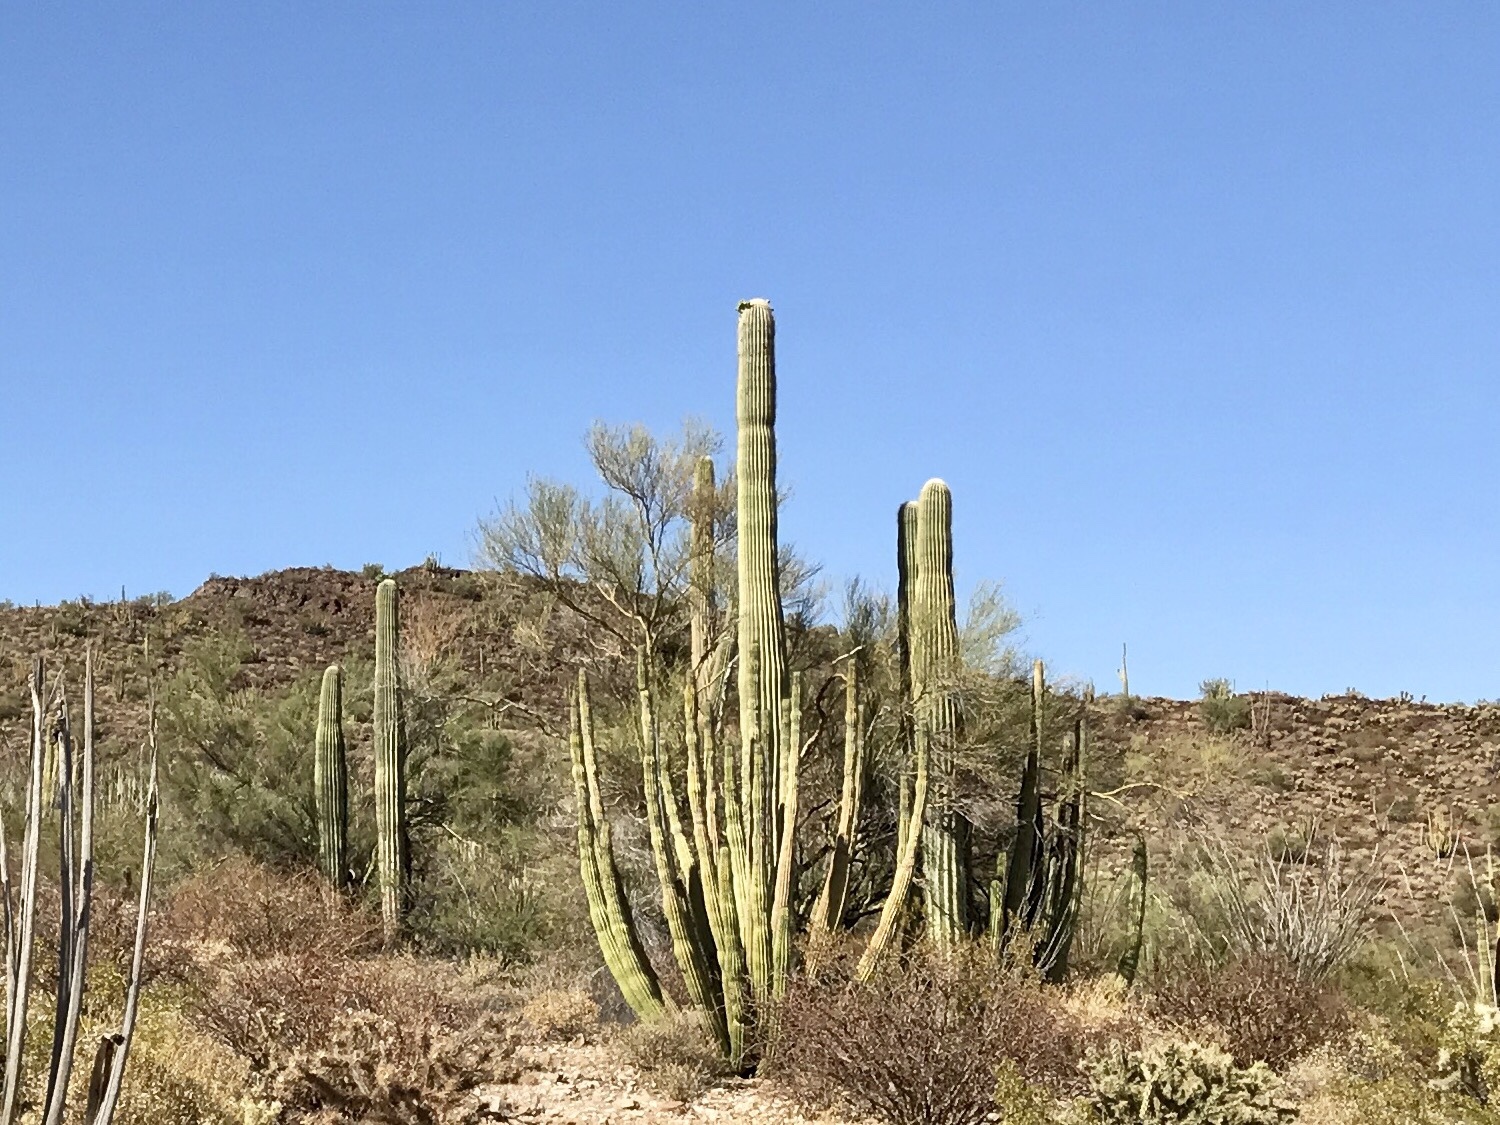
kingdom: Plantae
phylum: Tracheophyta
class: Magnoliopsida
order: Caryophyllales
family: Cactaceae
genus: Stenocereus
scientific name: Stenocereus thurberi
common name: Organ pipe cactus
